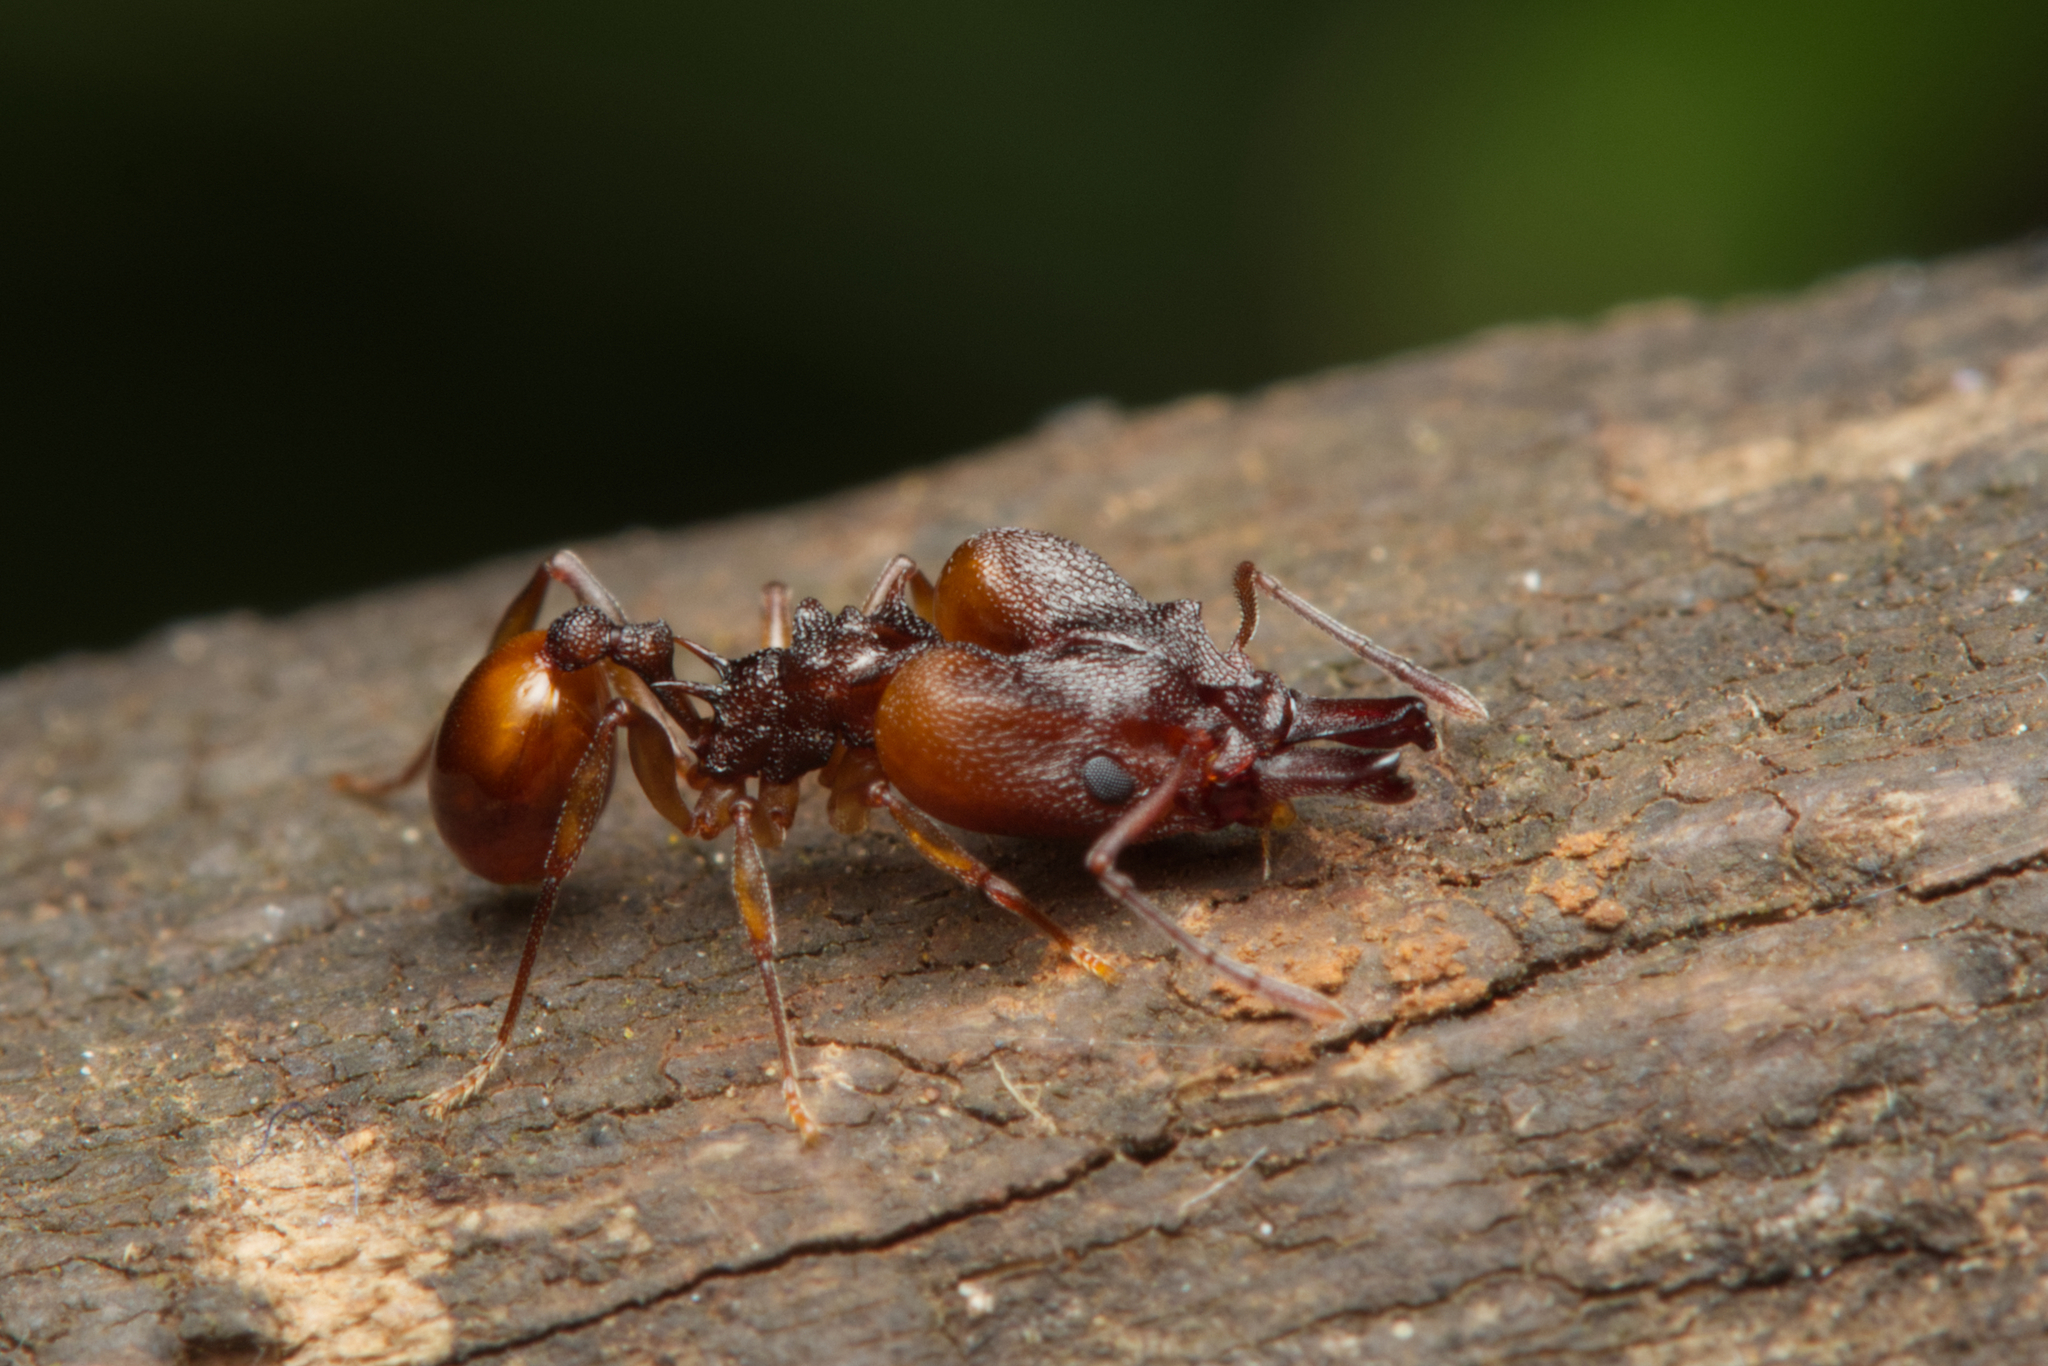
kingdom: Animalia
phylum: Arthropoda
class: Insecta
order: Hymenoptera
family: Formicidae
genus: Orectognathus
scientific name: Orectognathus versicolor
